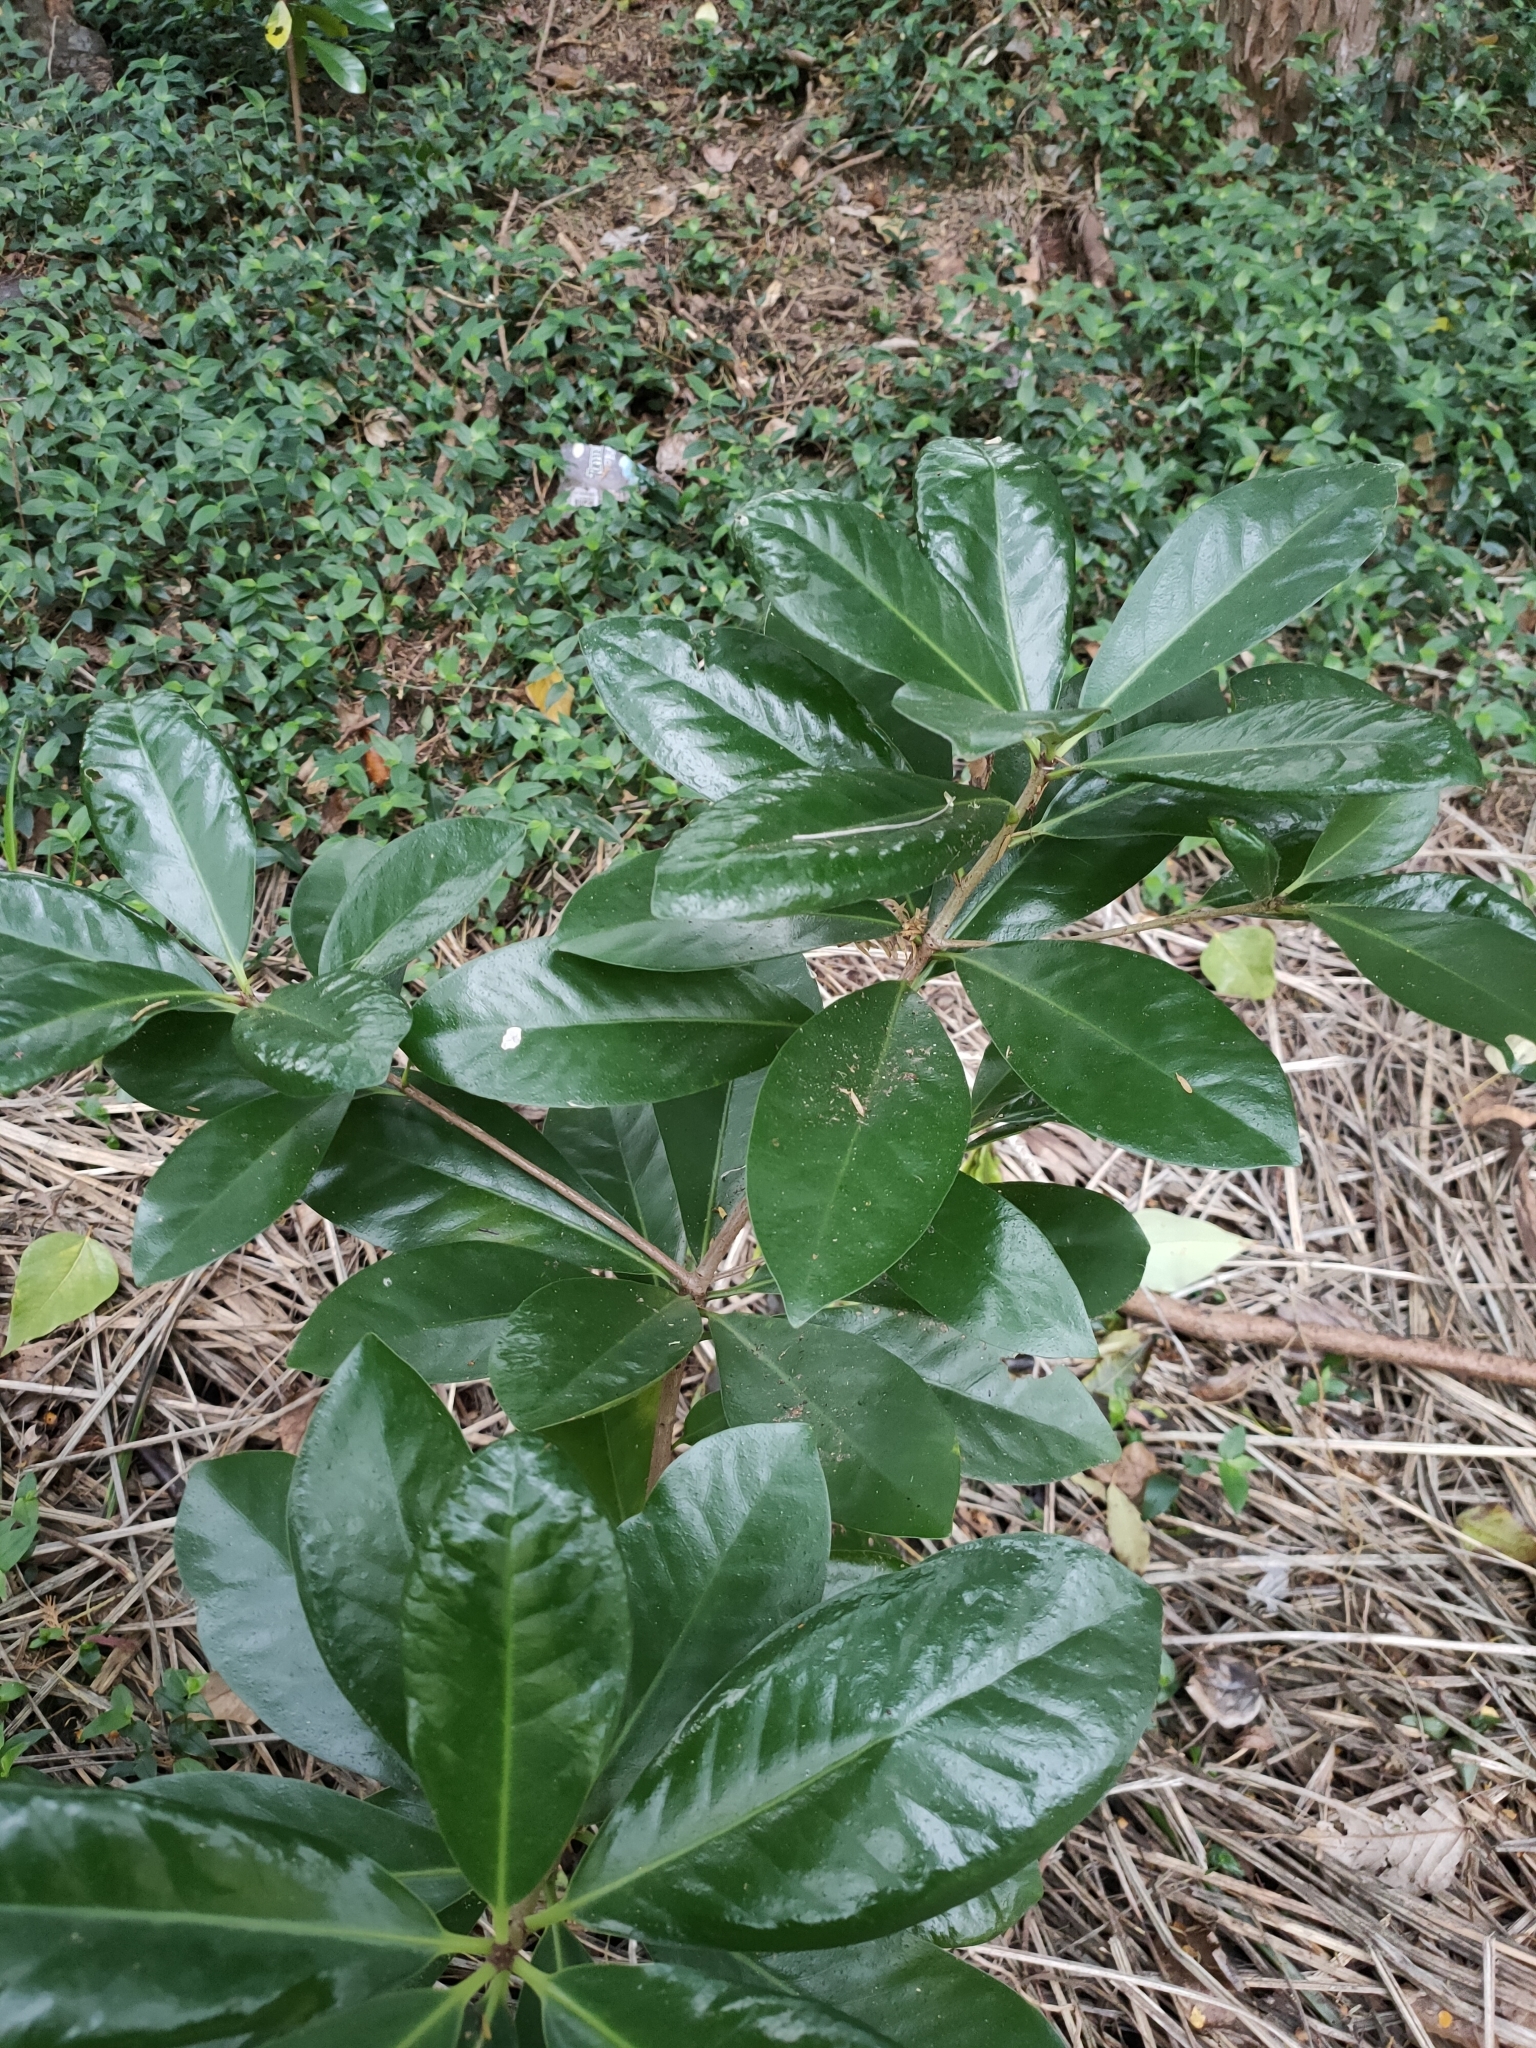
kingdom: Plantae
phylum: Tracheophyta
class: Magnoliopsida
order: Cucurbitales
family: Corynocarpaceae
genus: Corynocarpus
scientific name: Corynocarpus laevigatus
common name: New zealand laurel
